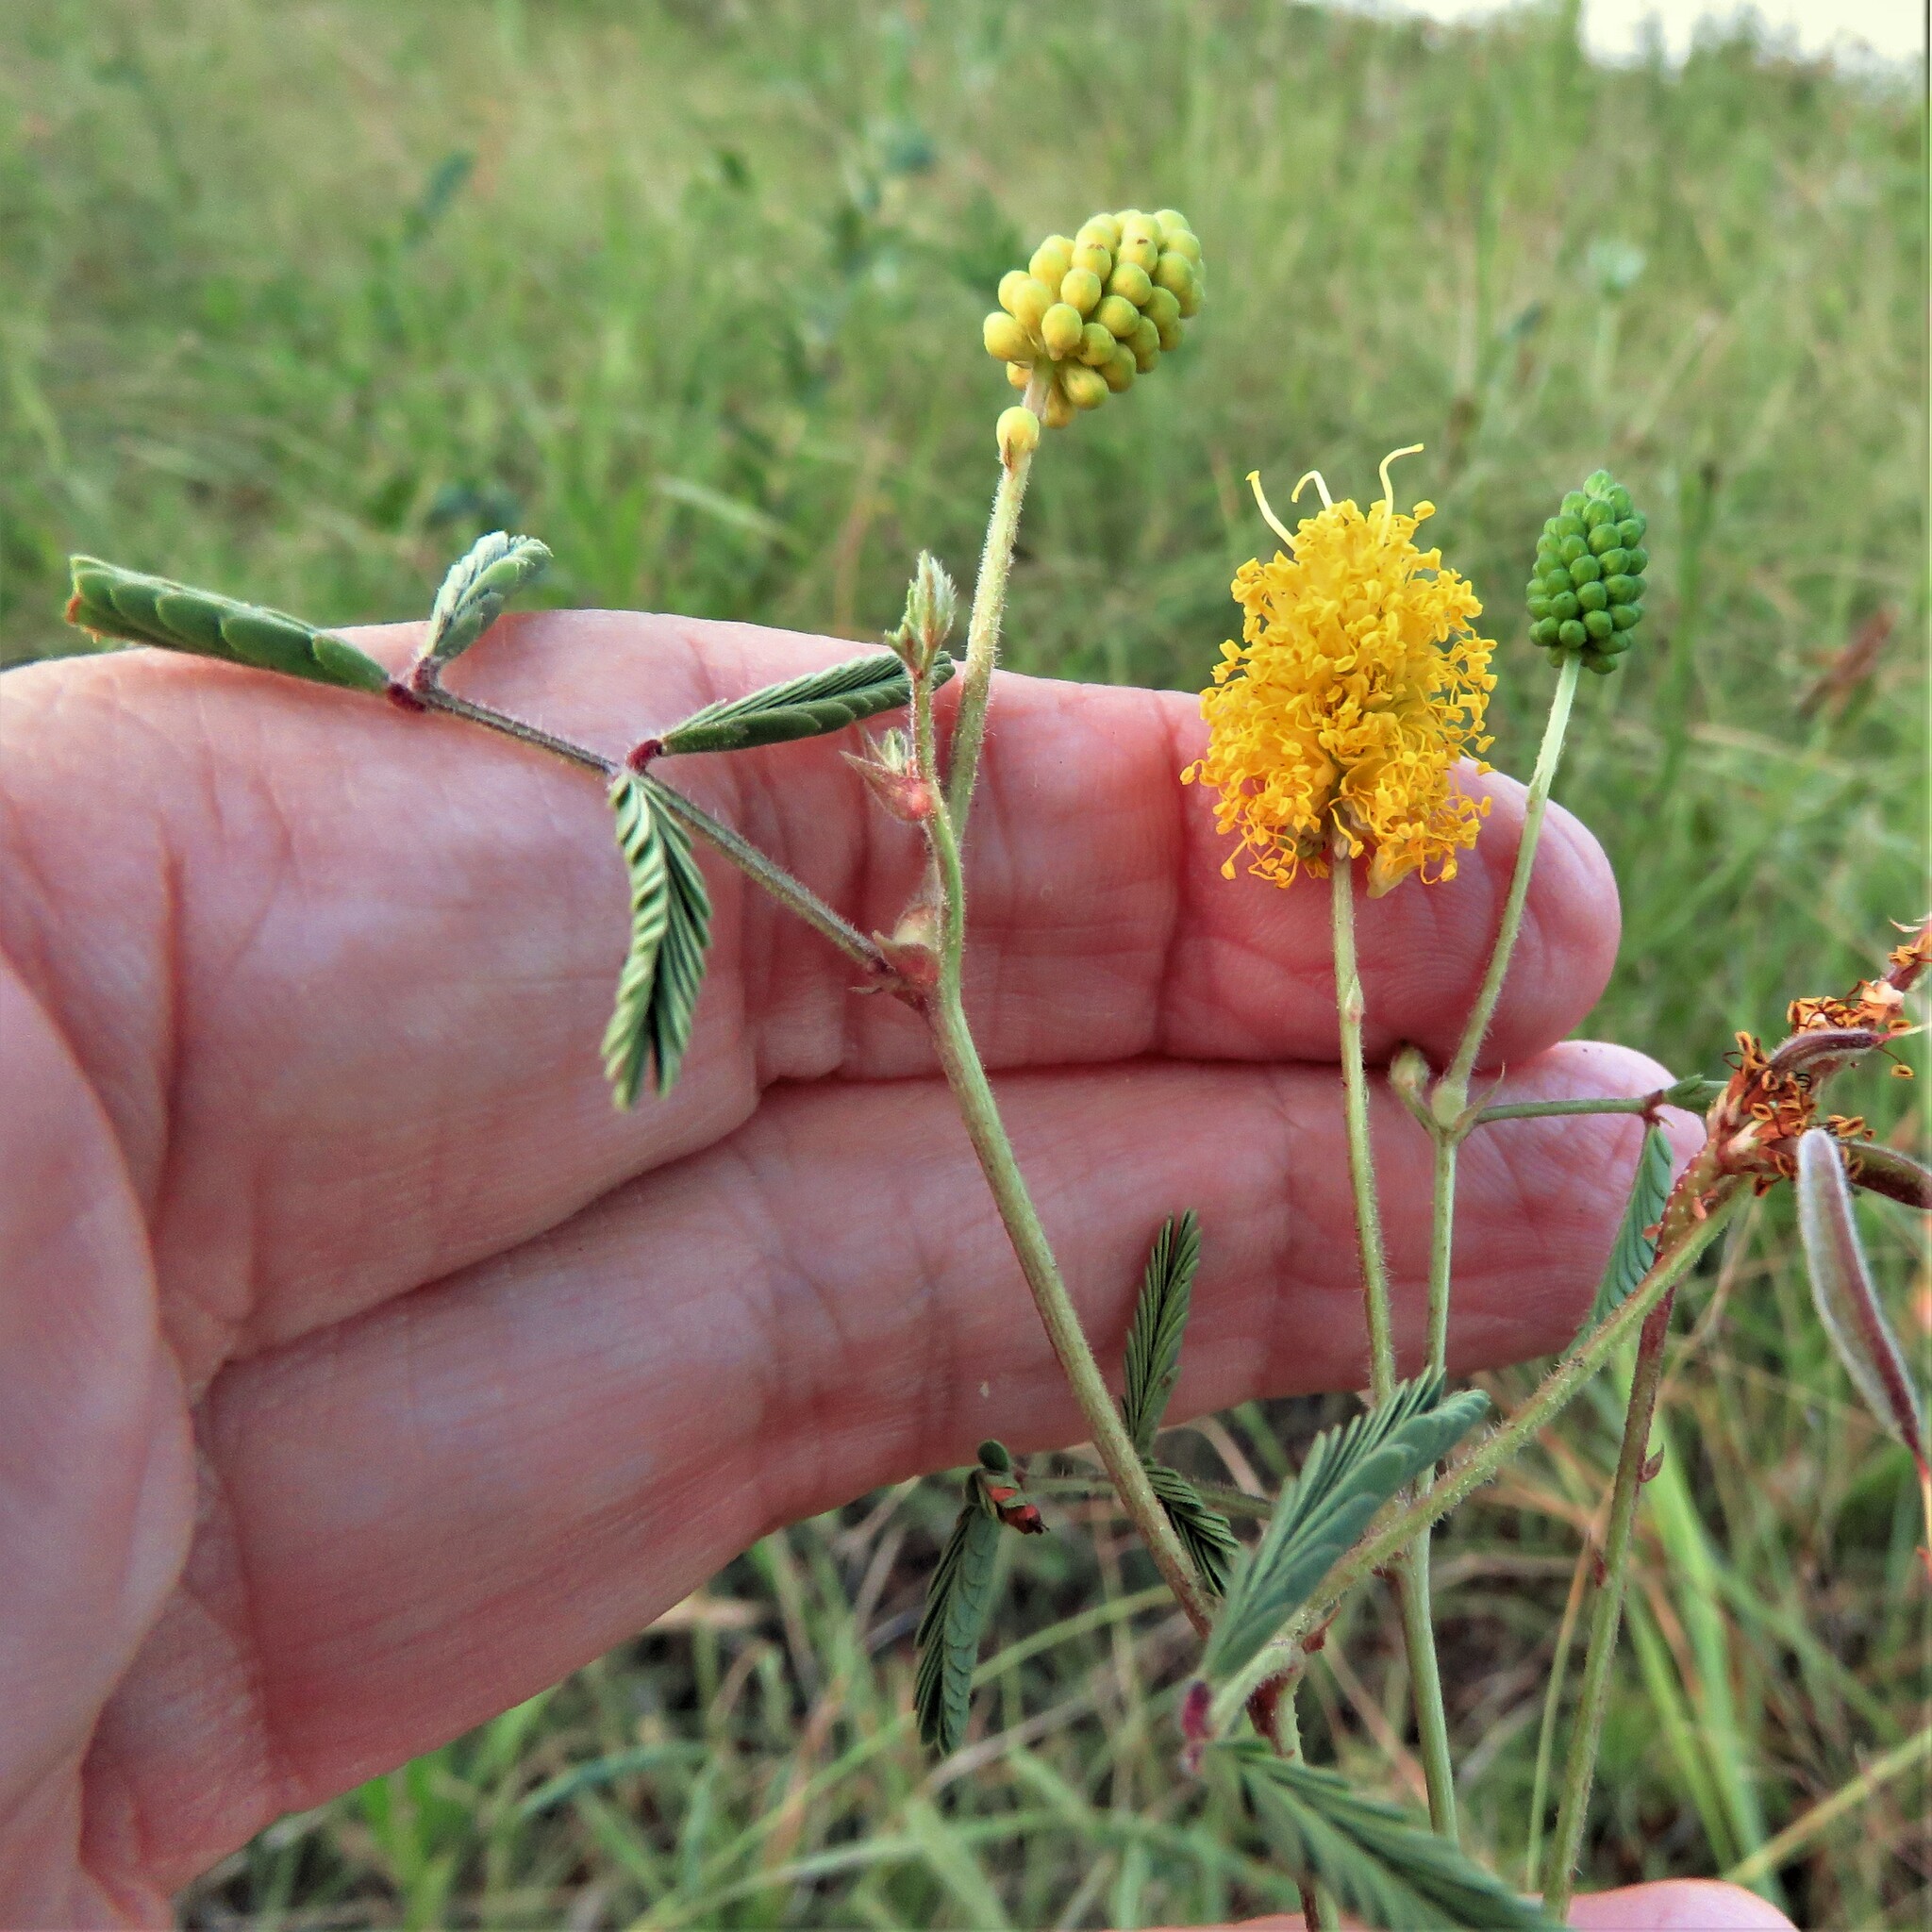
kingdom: Plantae
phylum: Tracheophyta
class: Magnoliopsida
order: Fabales
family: Fabaceae
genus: Neptunia
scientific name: Neptunia lutea
